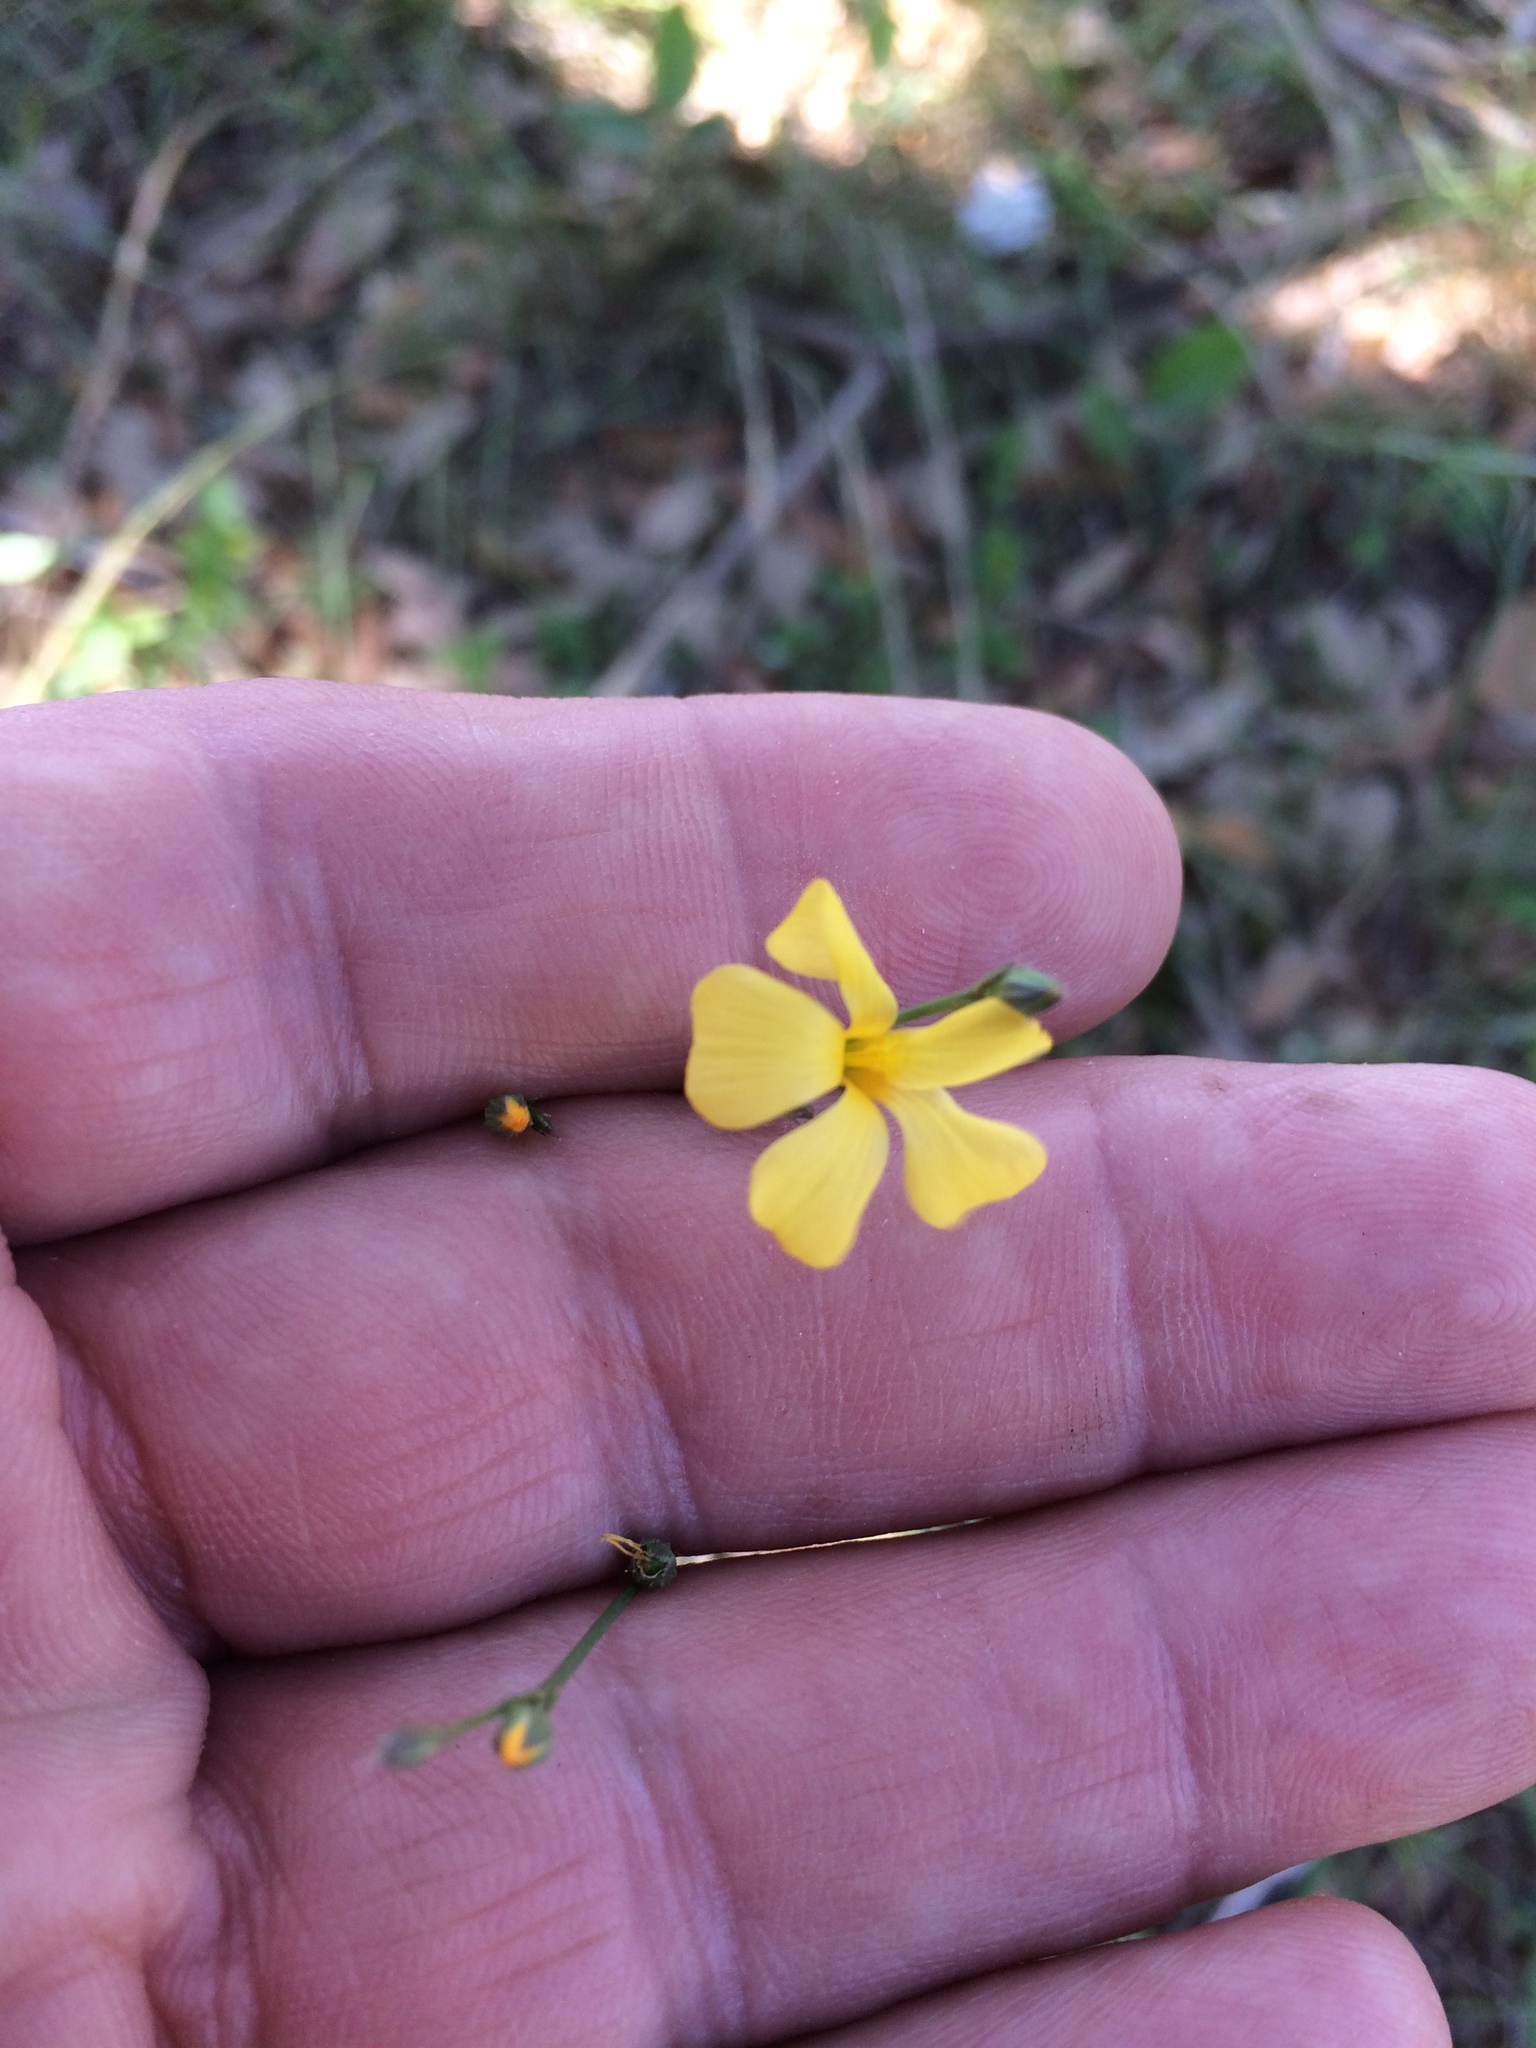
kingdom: Plantae
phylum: Tracheophyta
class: Magnoliopsida
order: Malpighiales
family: Linaceae
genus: Linum
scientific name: Linum rupestre
